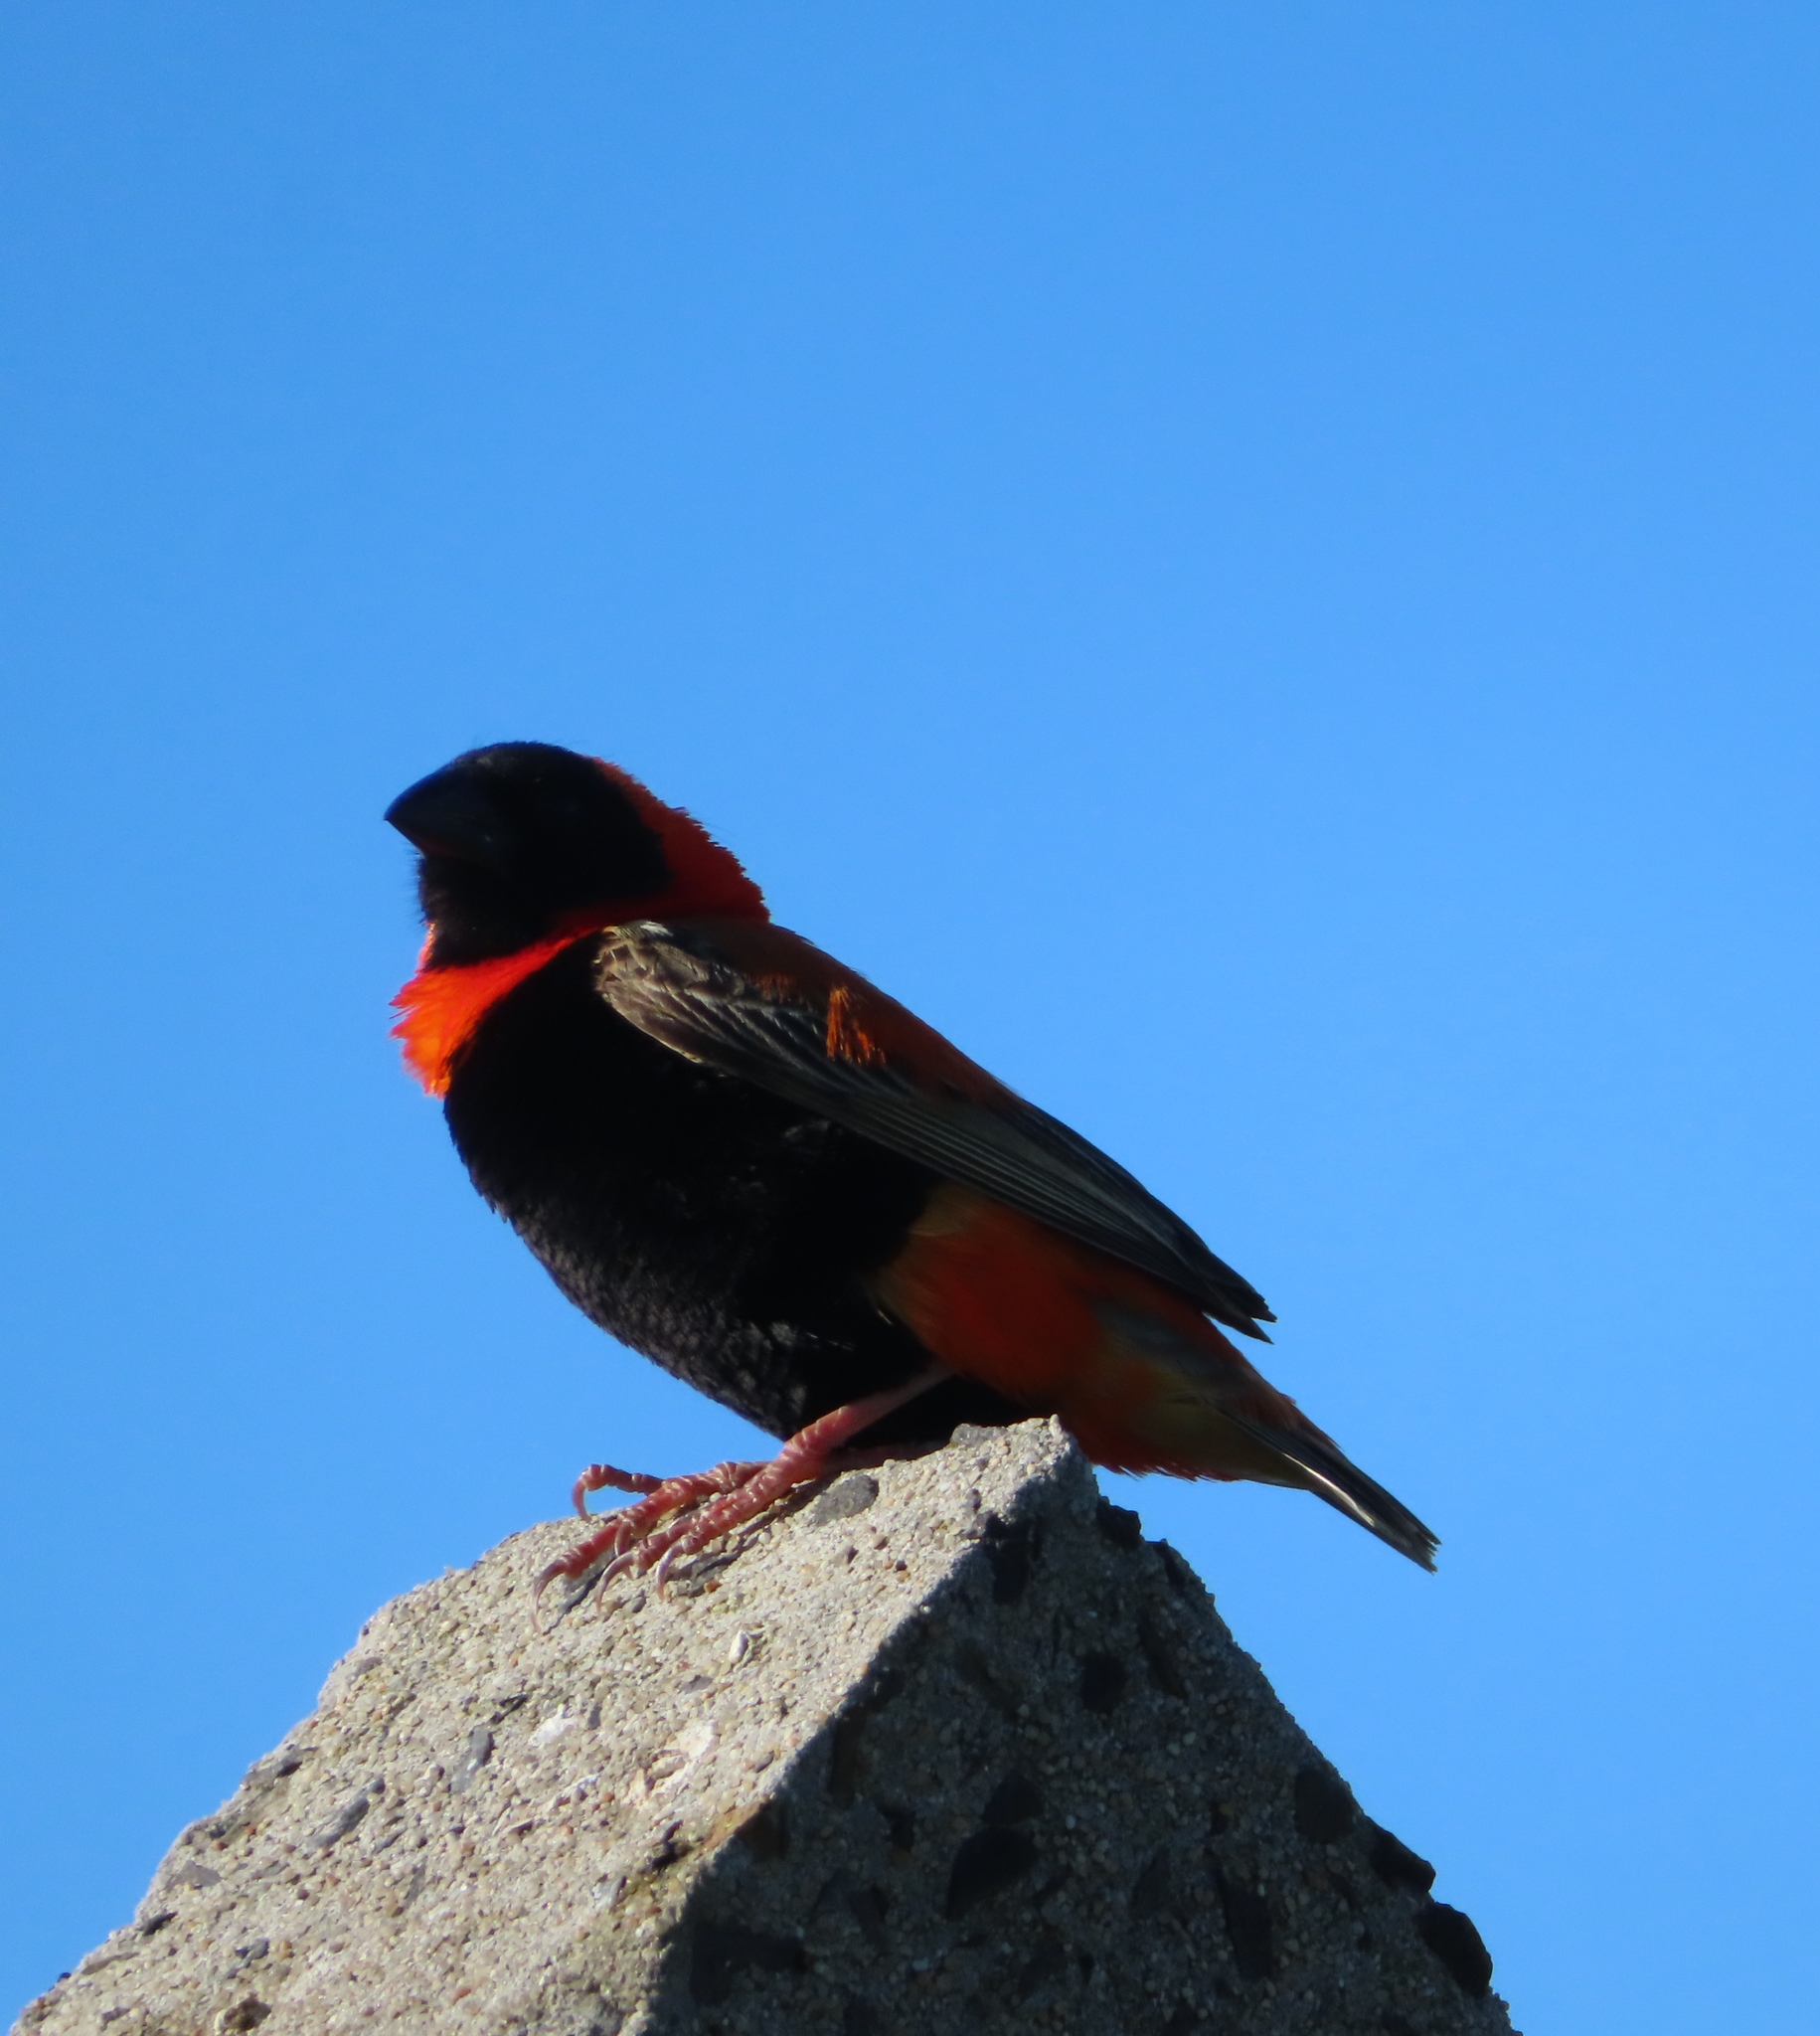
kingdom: Animalia
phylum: Chordata
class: Aves
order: Passeriformes
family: Ploceidae
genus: Euplectes
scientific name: Euplectes orix
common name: Southern red bishop
